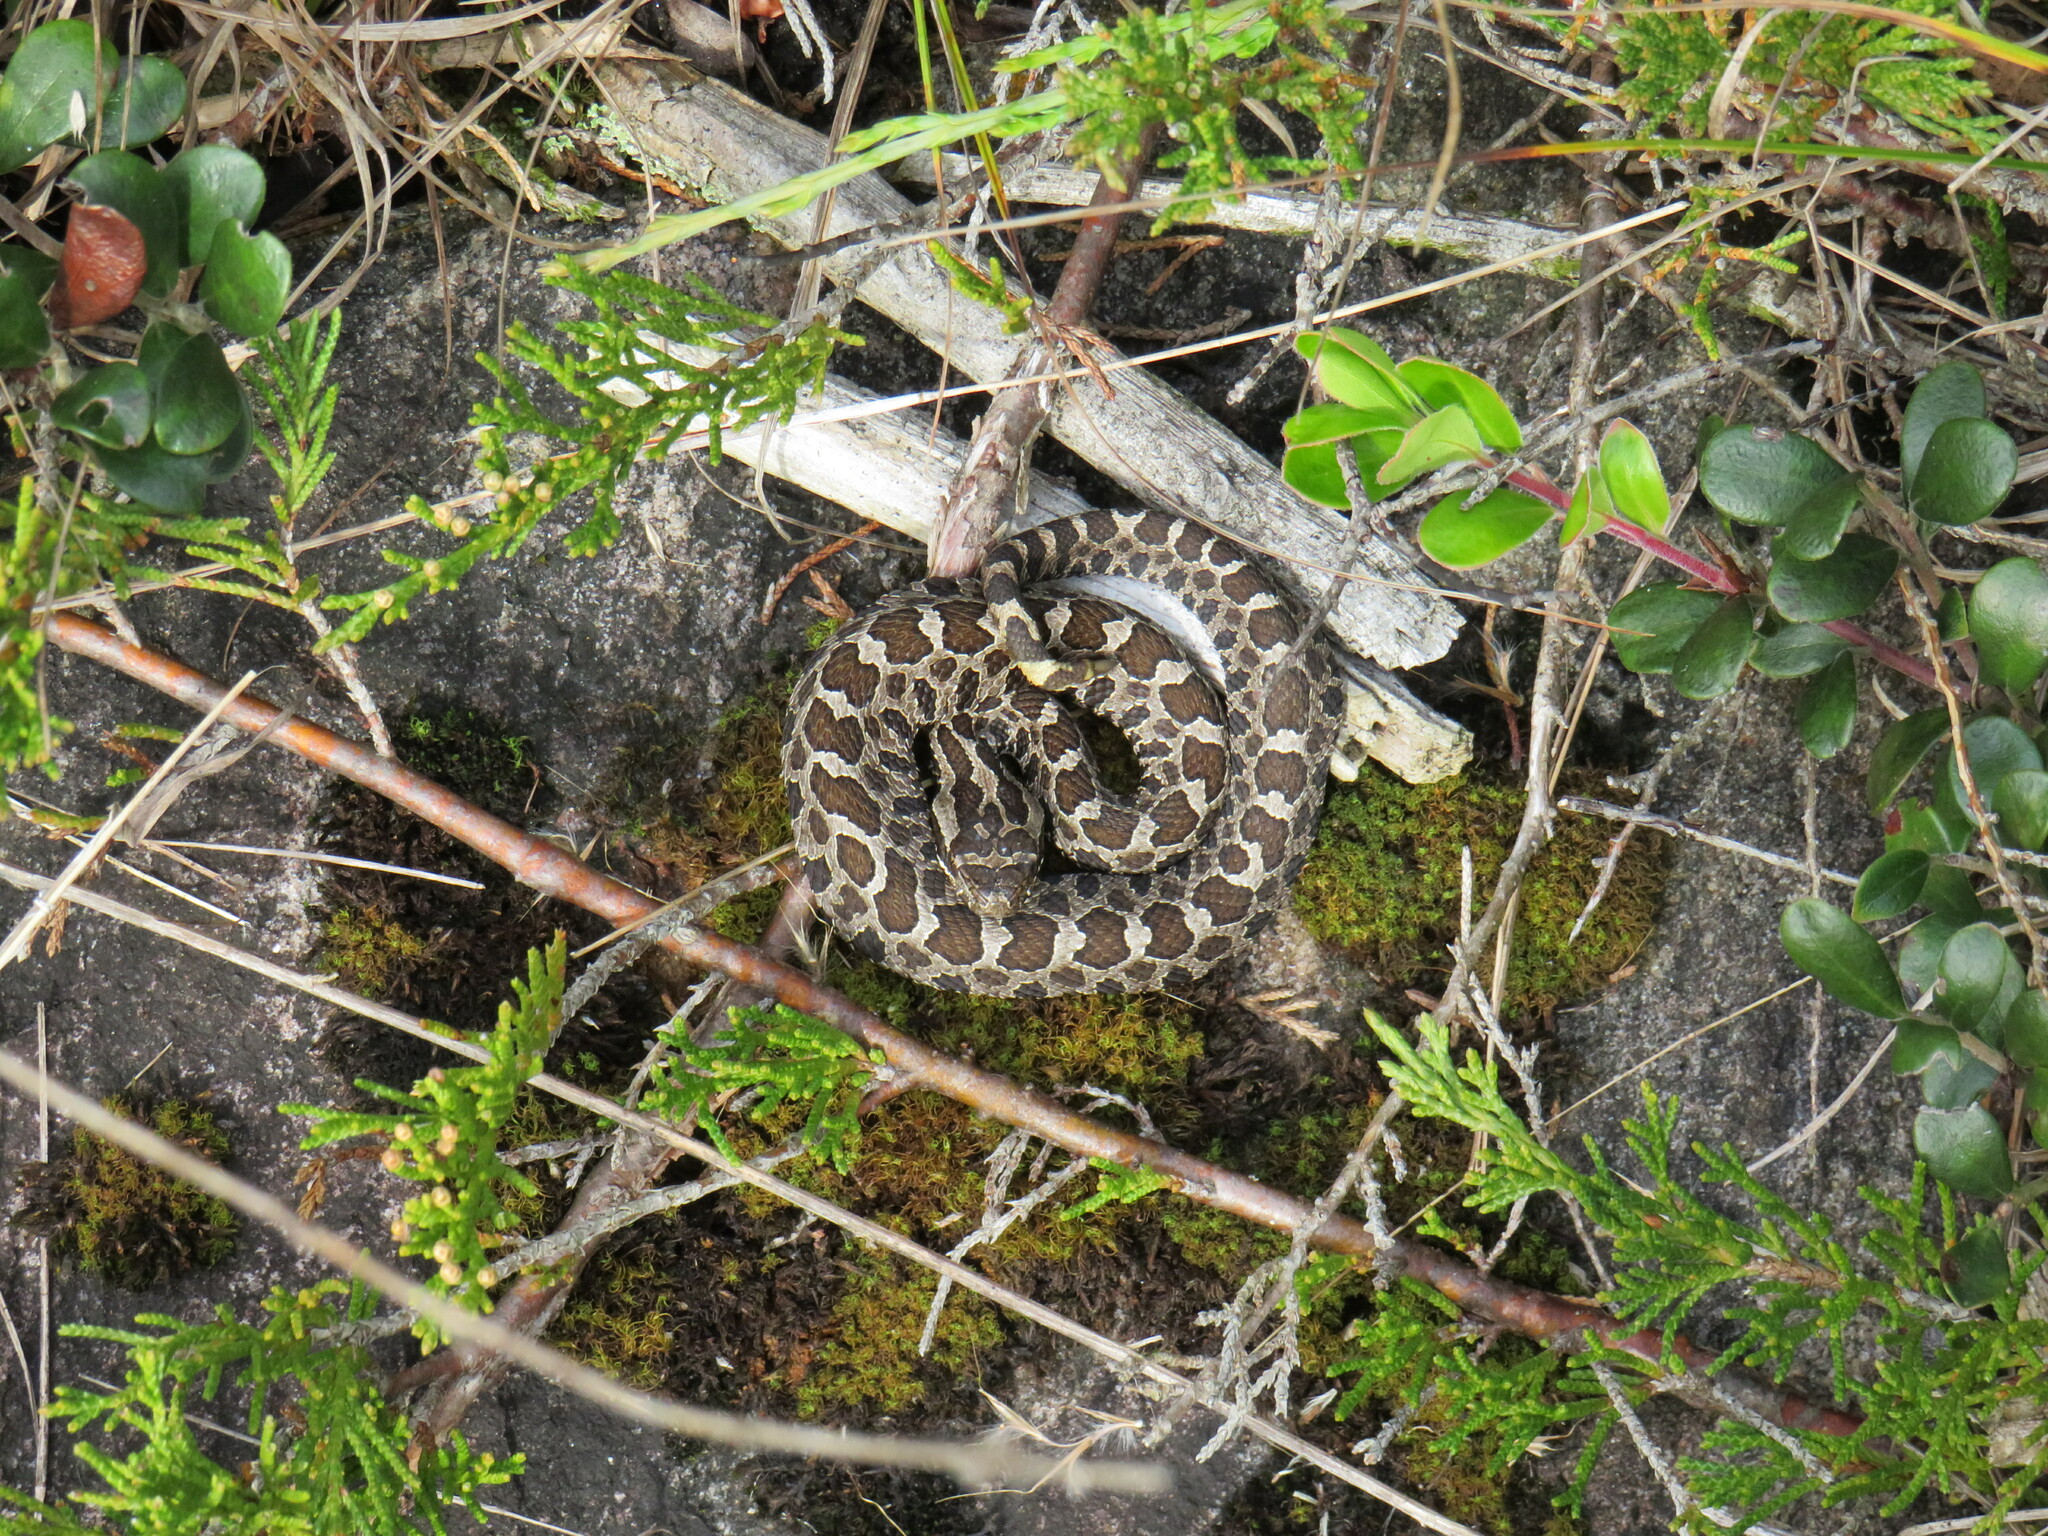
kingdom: Animalia
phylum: Chordata
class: Squamata
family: Viperidae
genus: Sistrurus
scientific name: Sistrurus catenatus
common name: Massasauga
